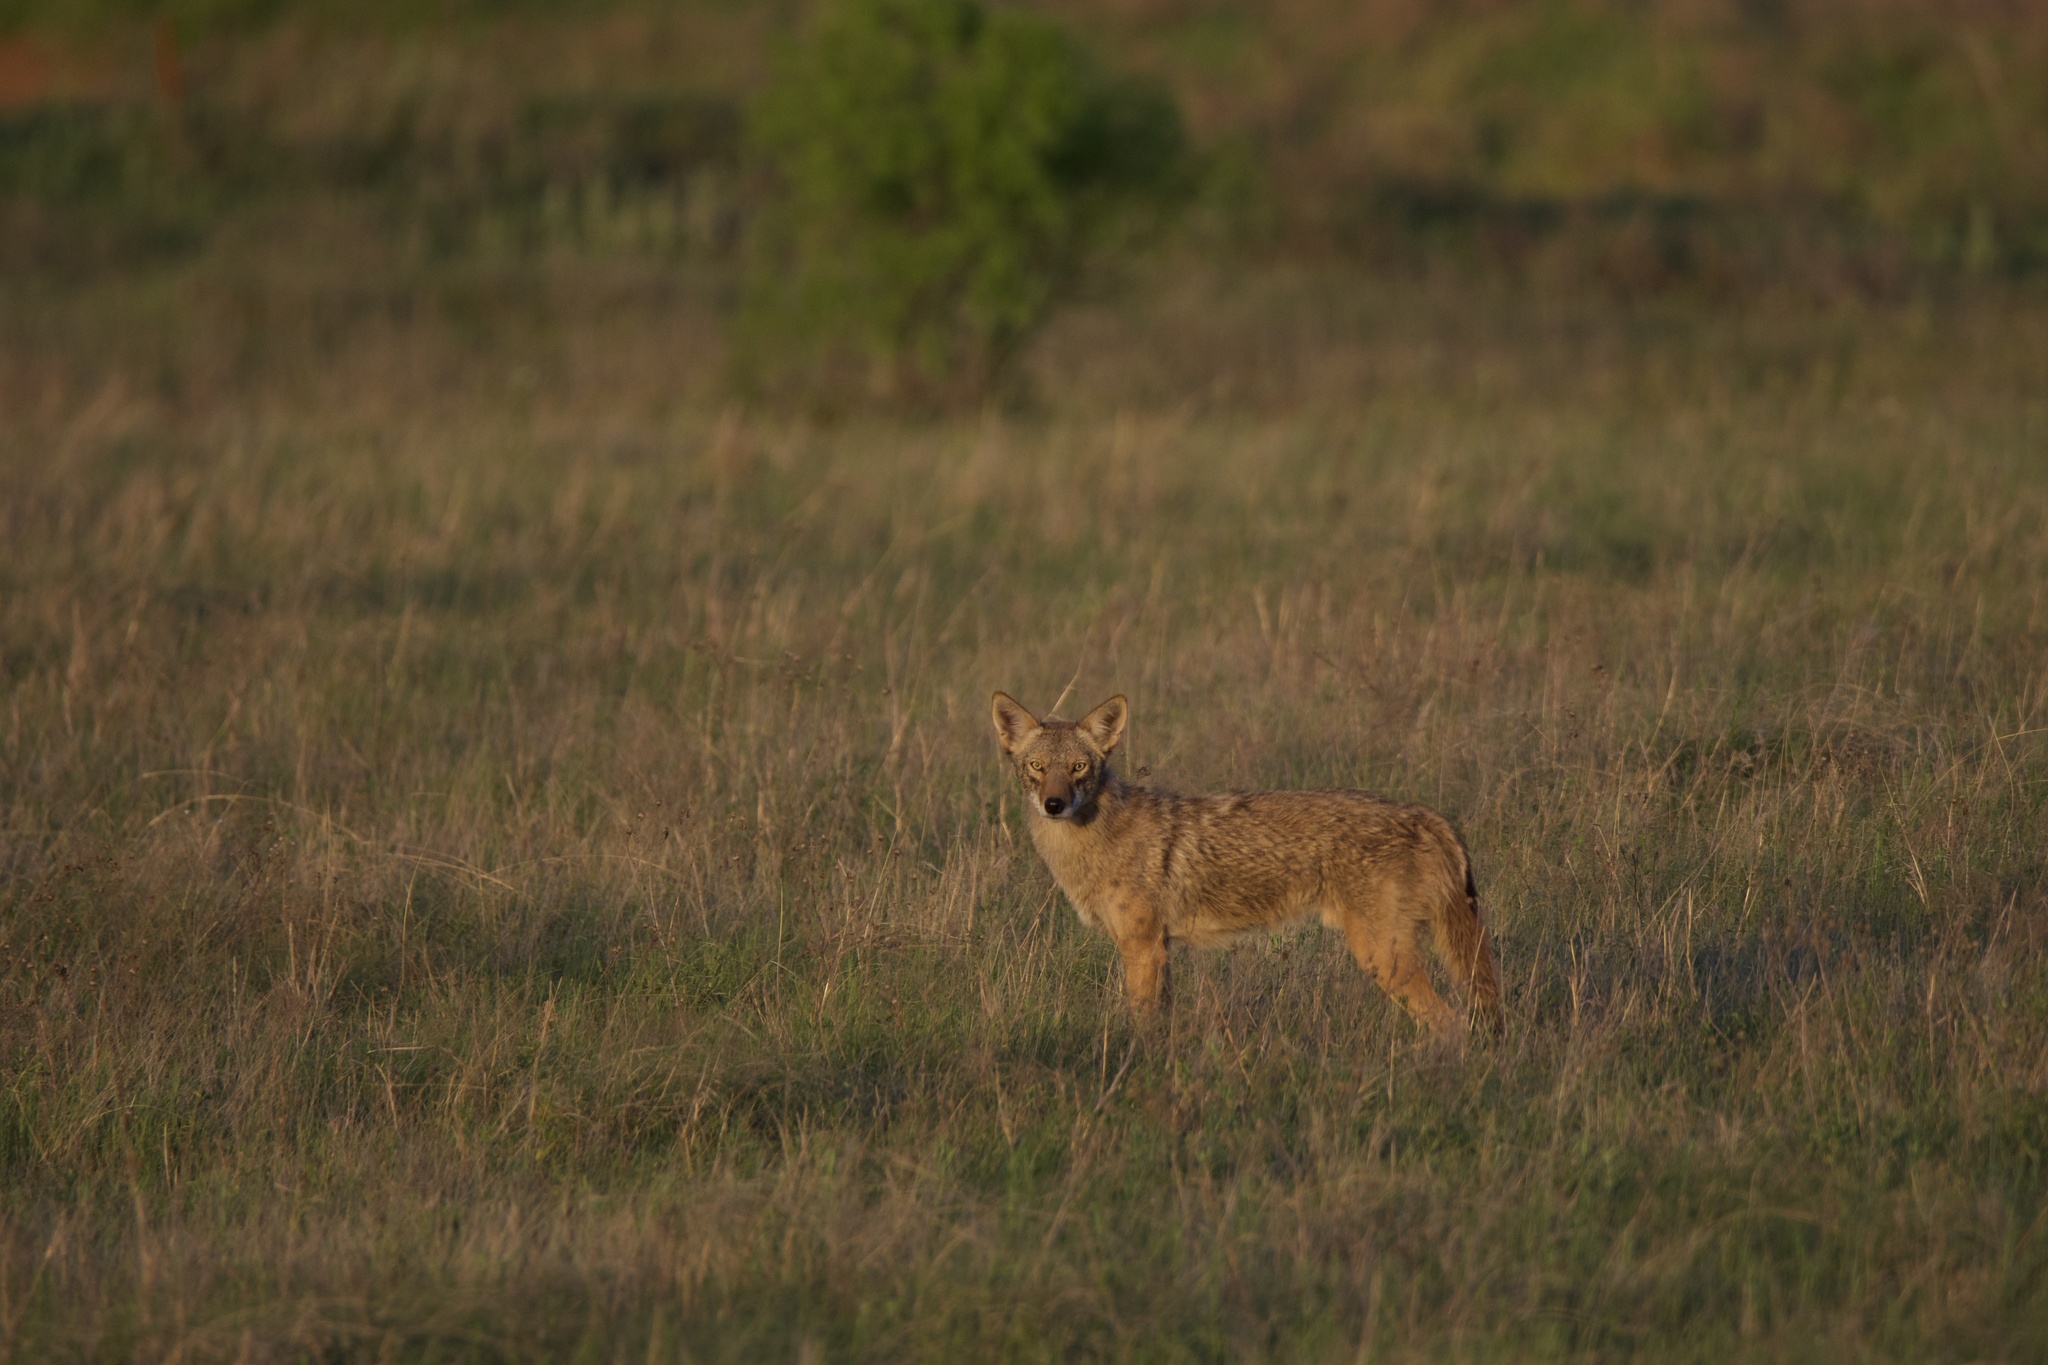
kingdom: Animalia
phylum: Chordata
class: Mammalia
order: Carnivora
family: Canidae
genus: Canis
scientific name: Canis latrans
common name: Coyote
